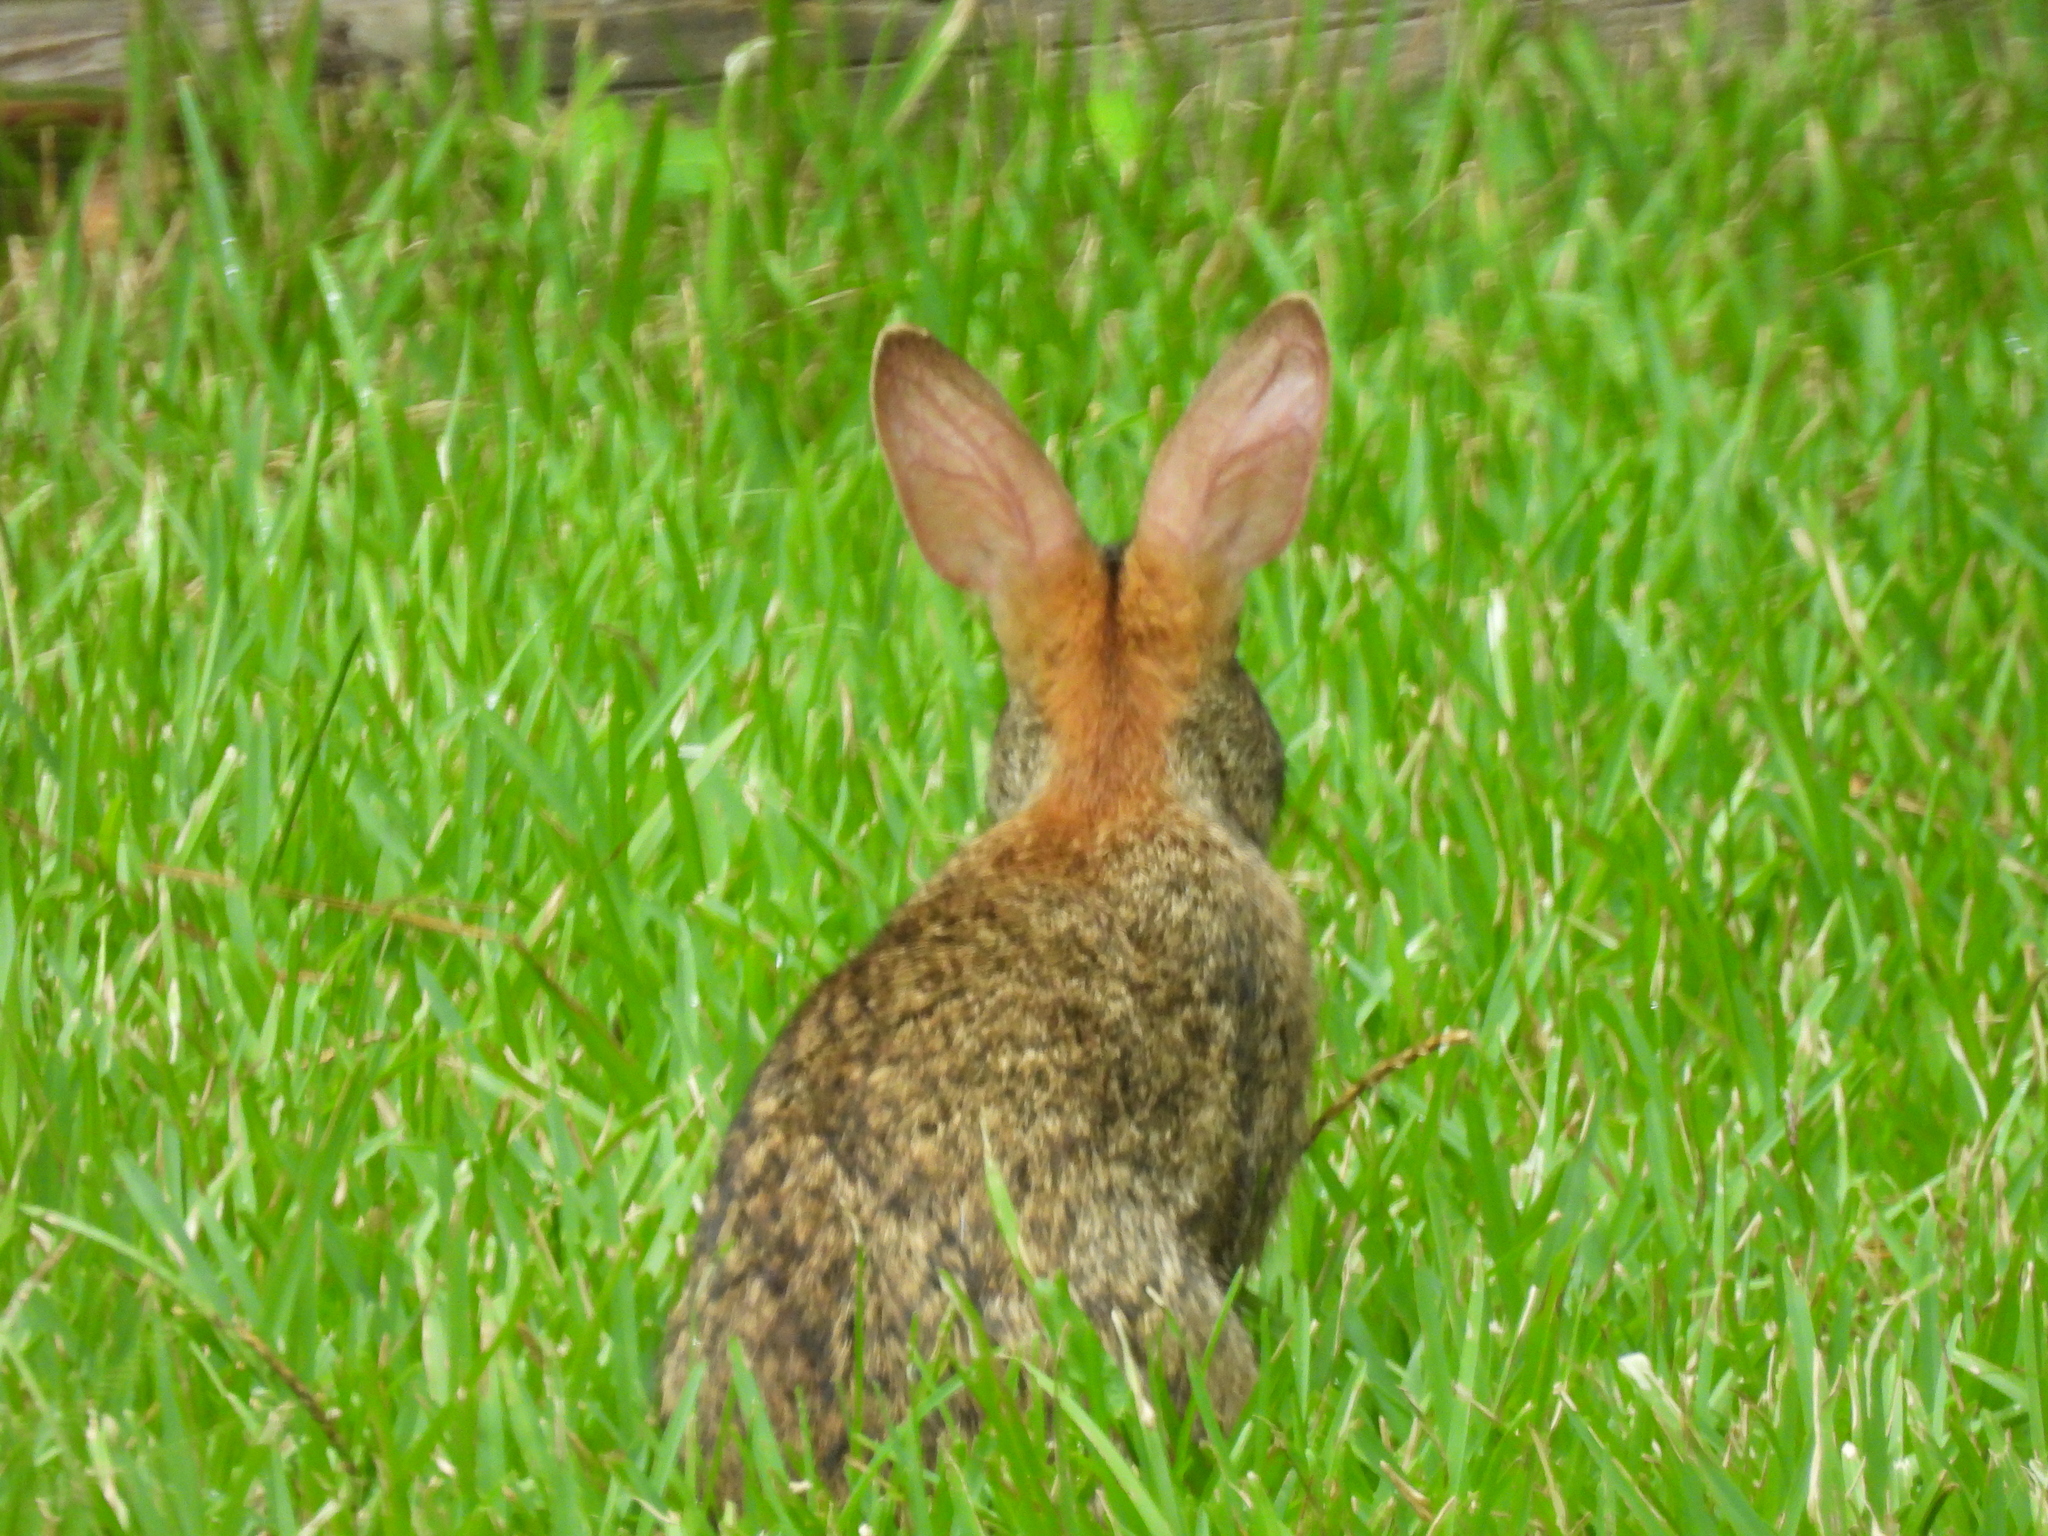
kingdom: Animalia
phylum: Chordata
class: Mammalia
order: Lagomorpha
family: Leporidae
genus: Sylvilagus
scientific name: Sylvilagus aquaticus
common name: Swamp rabbit
